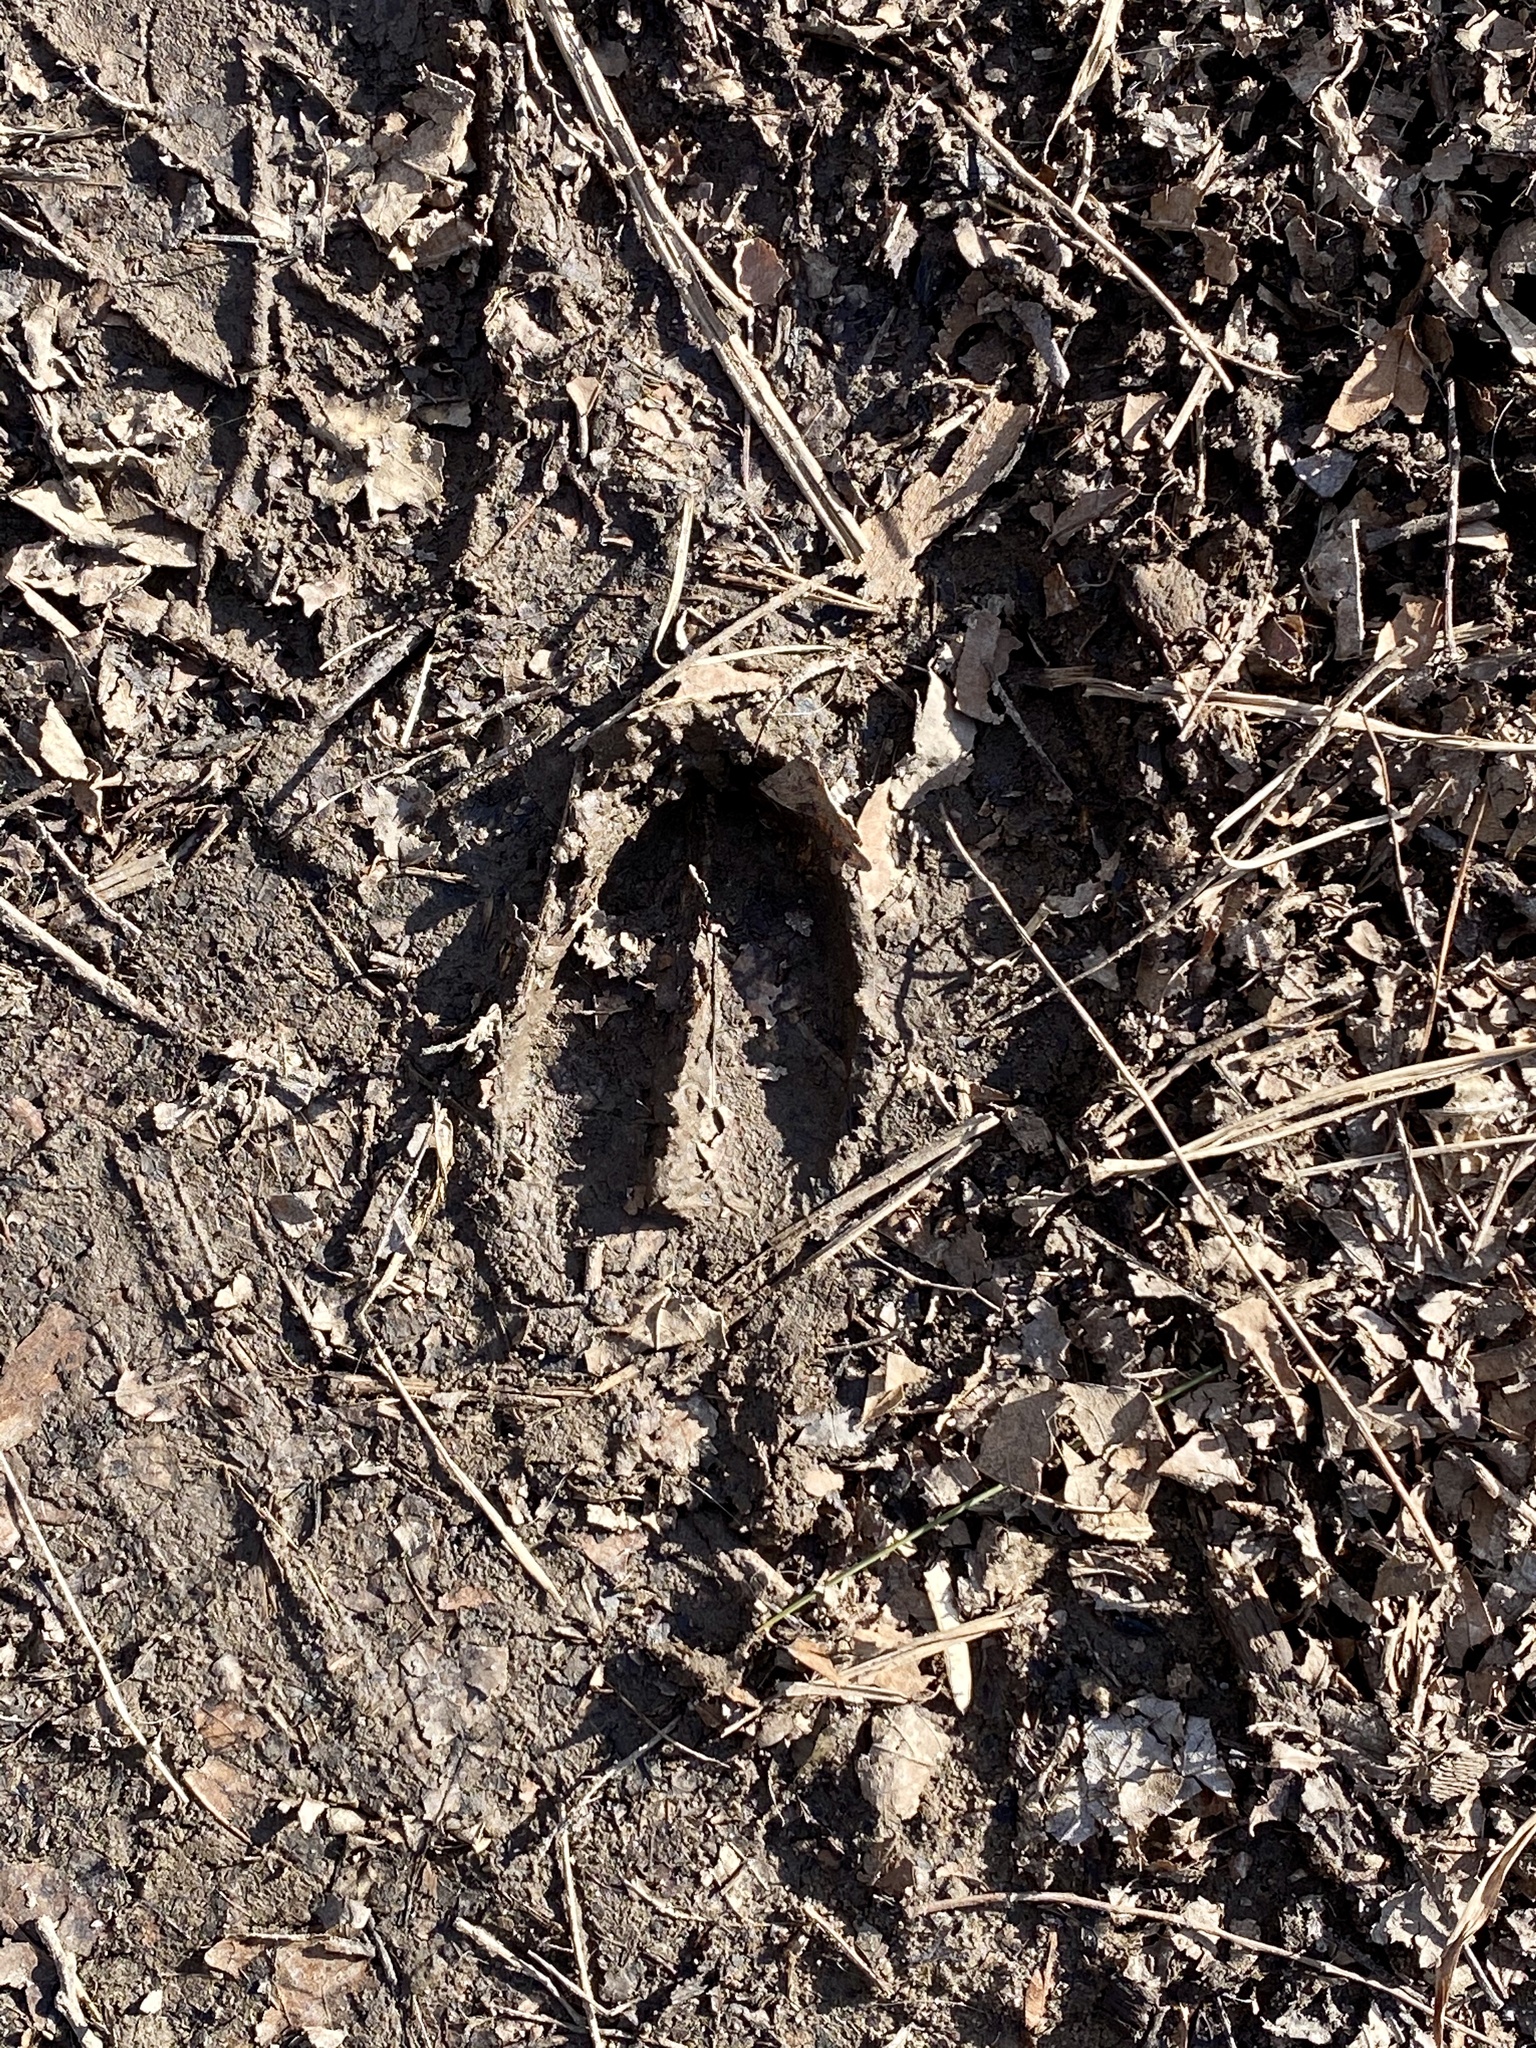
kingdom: Animalia
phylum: Chordata
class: Mammalia
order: Artiodactyla
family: Cervidae
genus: Odocoileus
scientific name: Odocoileus virginianus
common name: White-tailed deer
